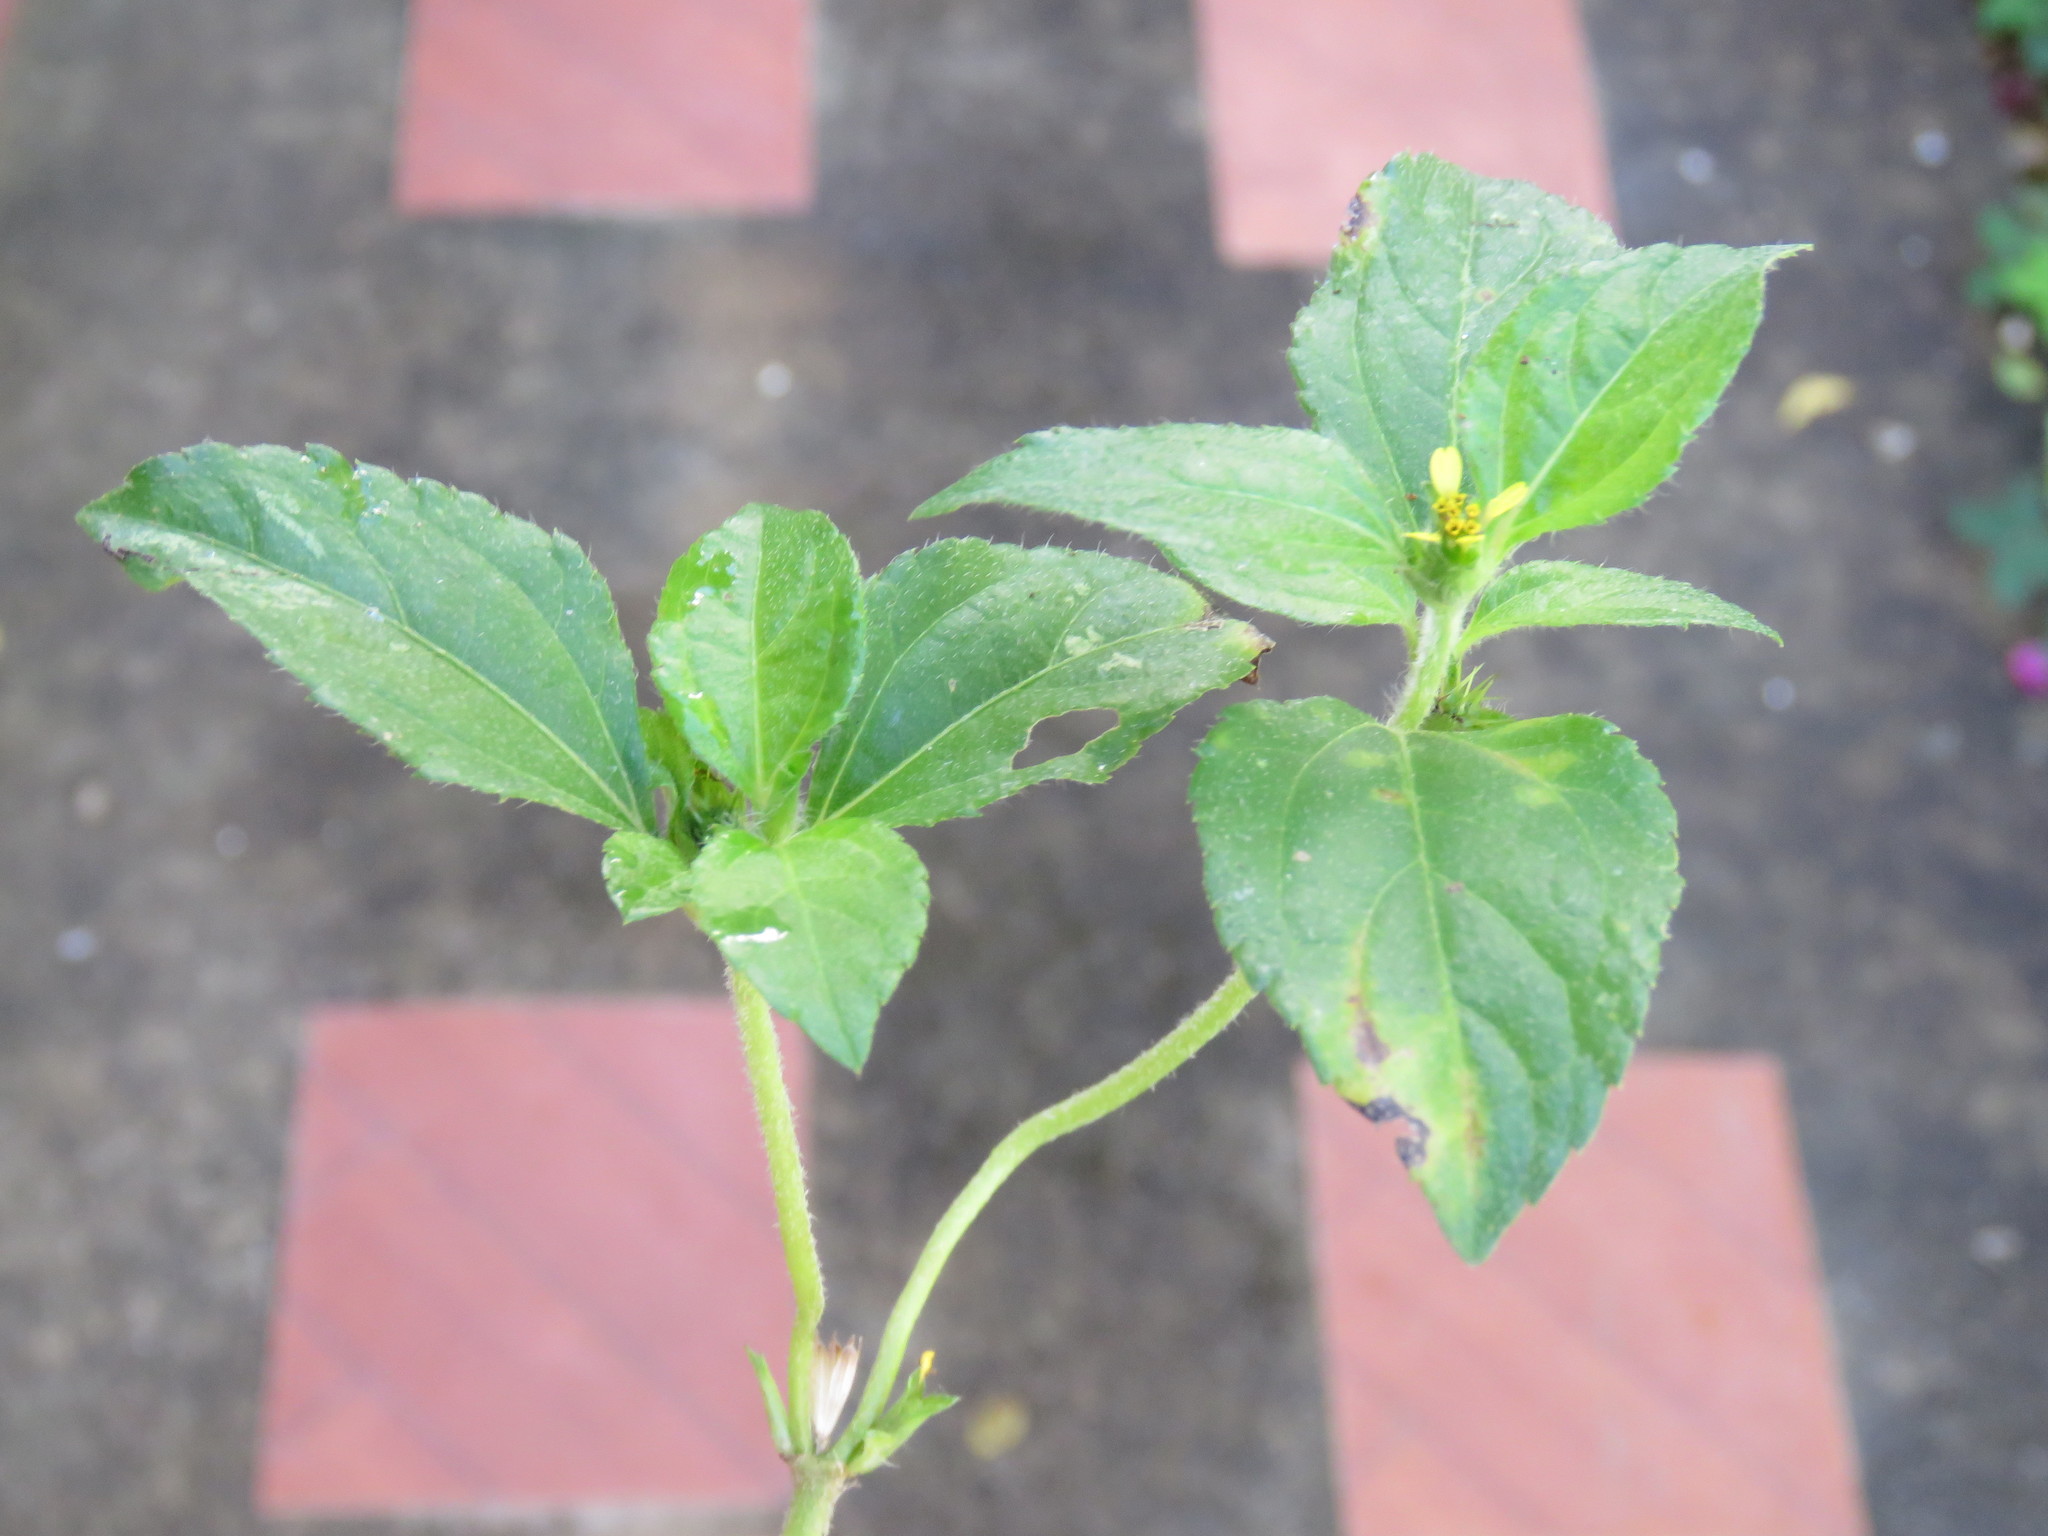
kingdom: Plantae
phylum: Tracheophyta
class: Magnoliopsida
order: Asterales
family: Asteraceae
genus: Synedrella
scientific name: Synedrella nodiflora
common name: Nodeweed
